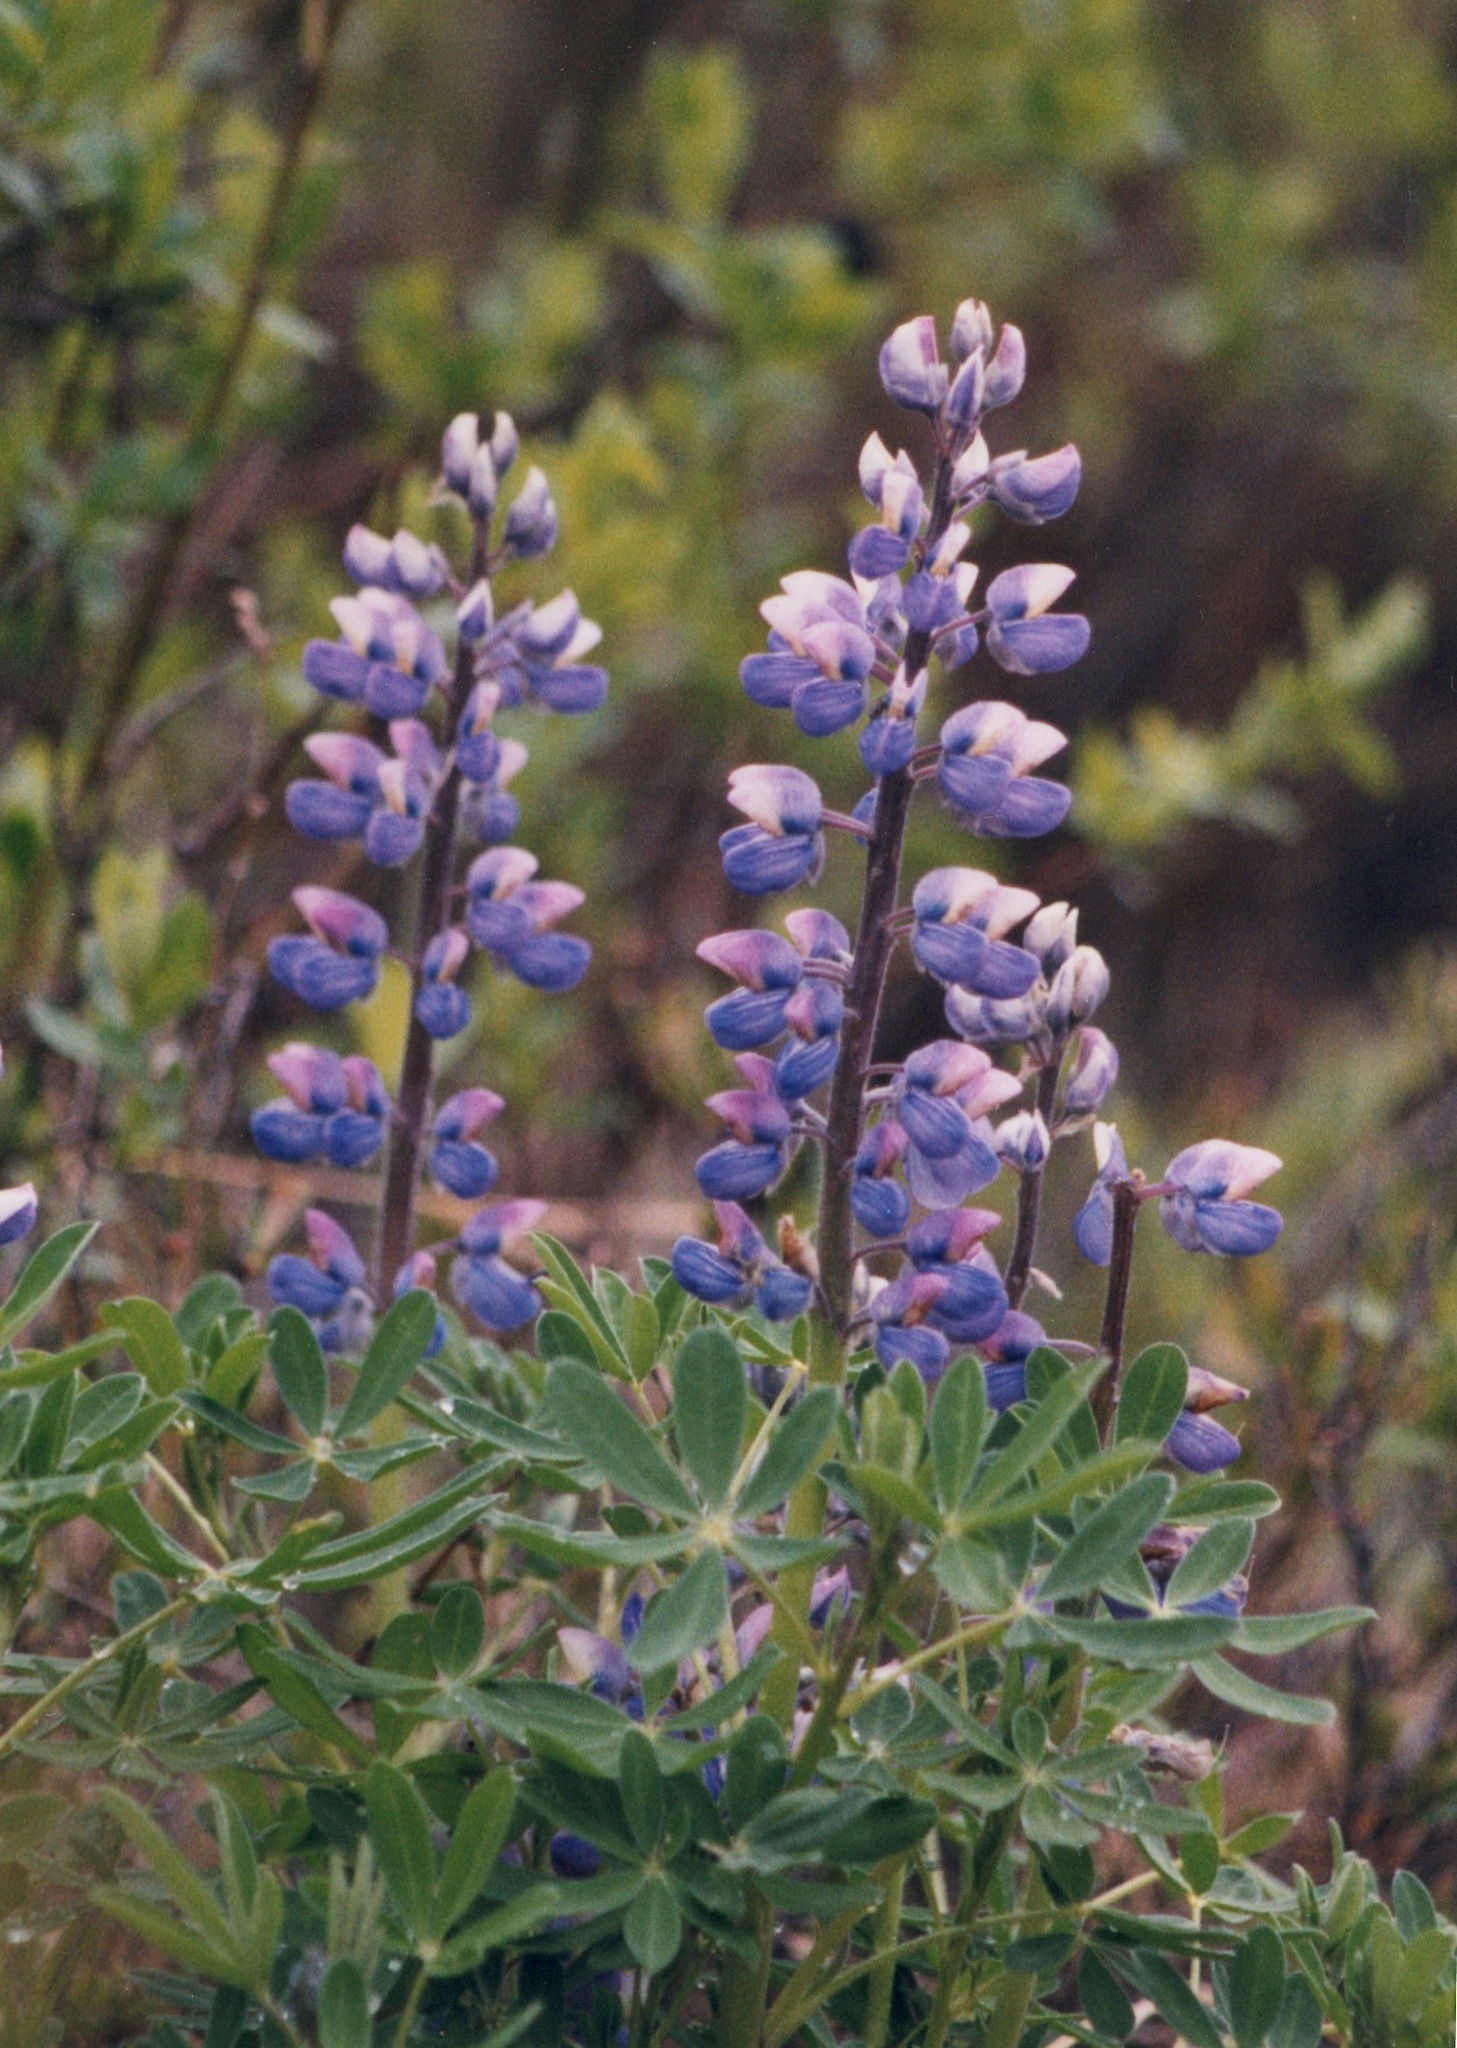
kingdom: Plantae
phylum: Tracheophyta
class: Magnoliopsida
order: Fabales
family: Fabaceae
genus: Lupinus
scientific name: Lupinus arcticus
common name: Arctic lupine
